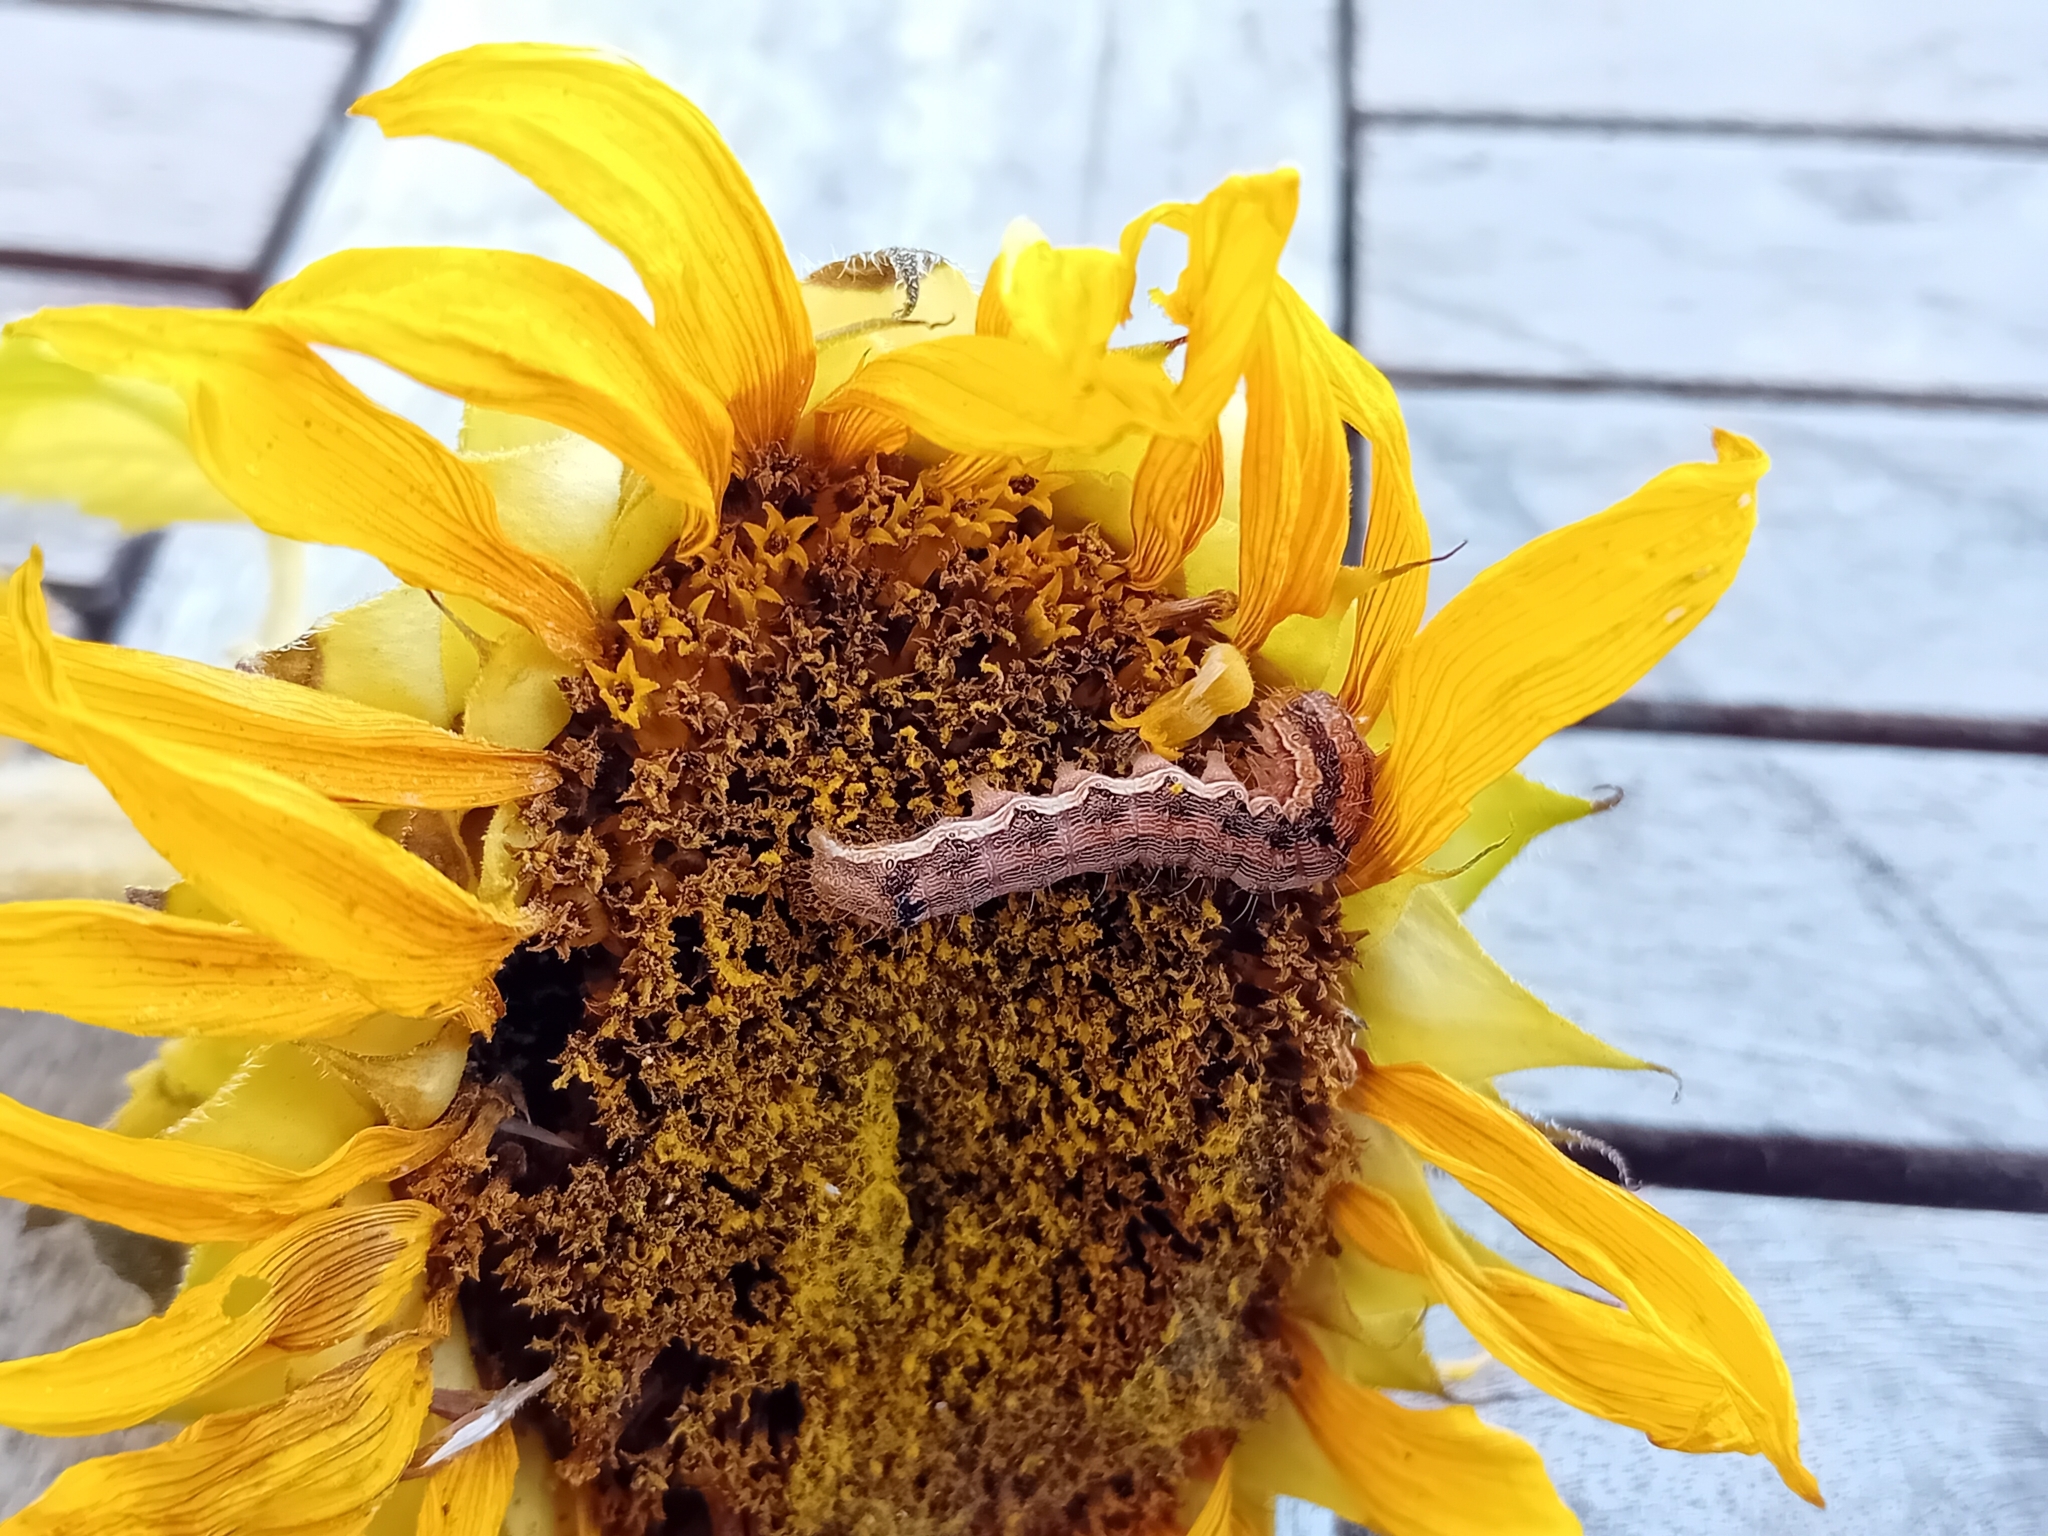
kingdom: Animalia
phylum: Arthropoda
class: Insecta
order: Lepidoptera
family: Noctuidae
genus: Helicoverpa
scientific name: Helicoverpa armigera
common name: Cotton bollworm
